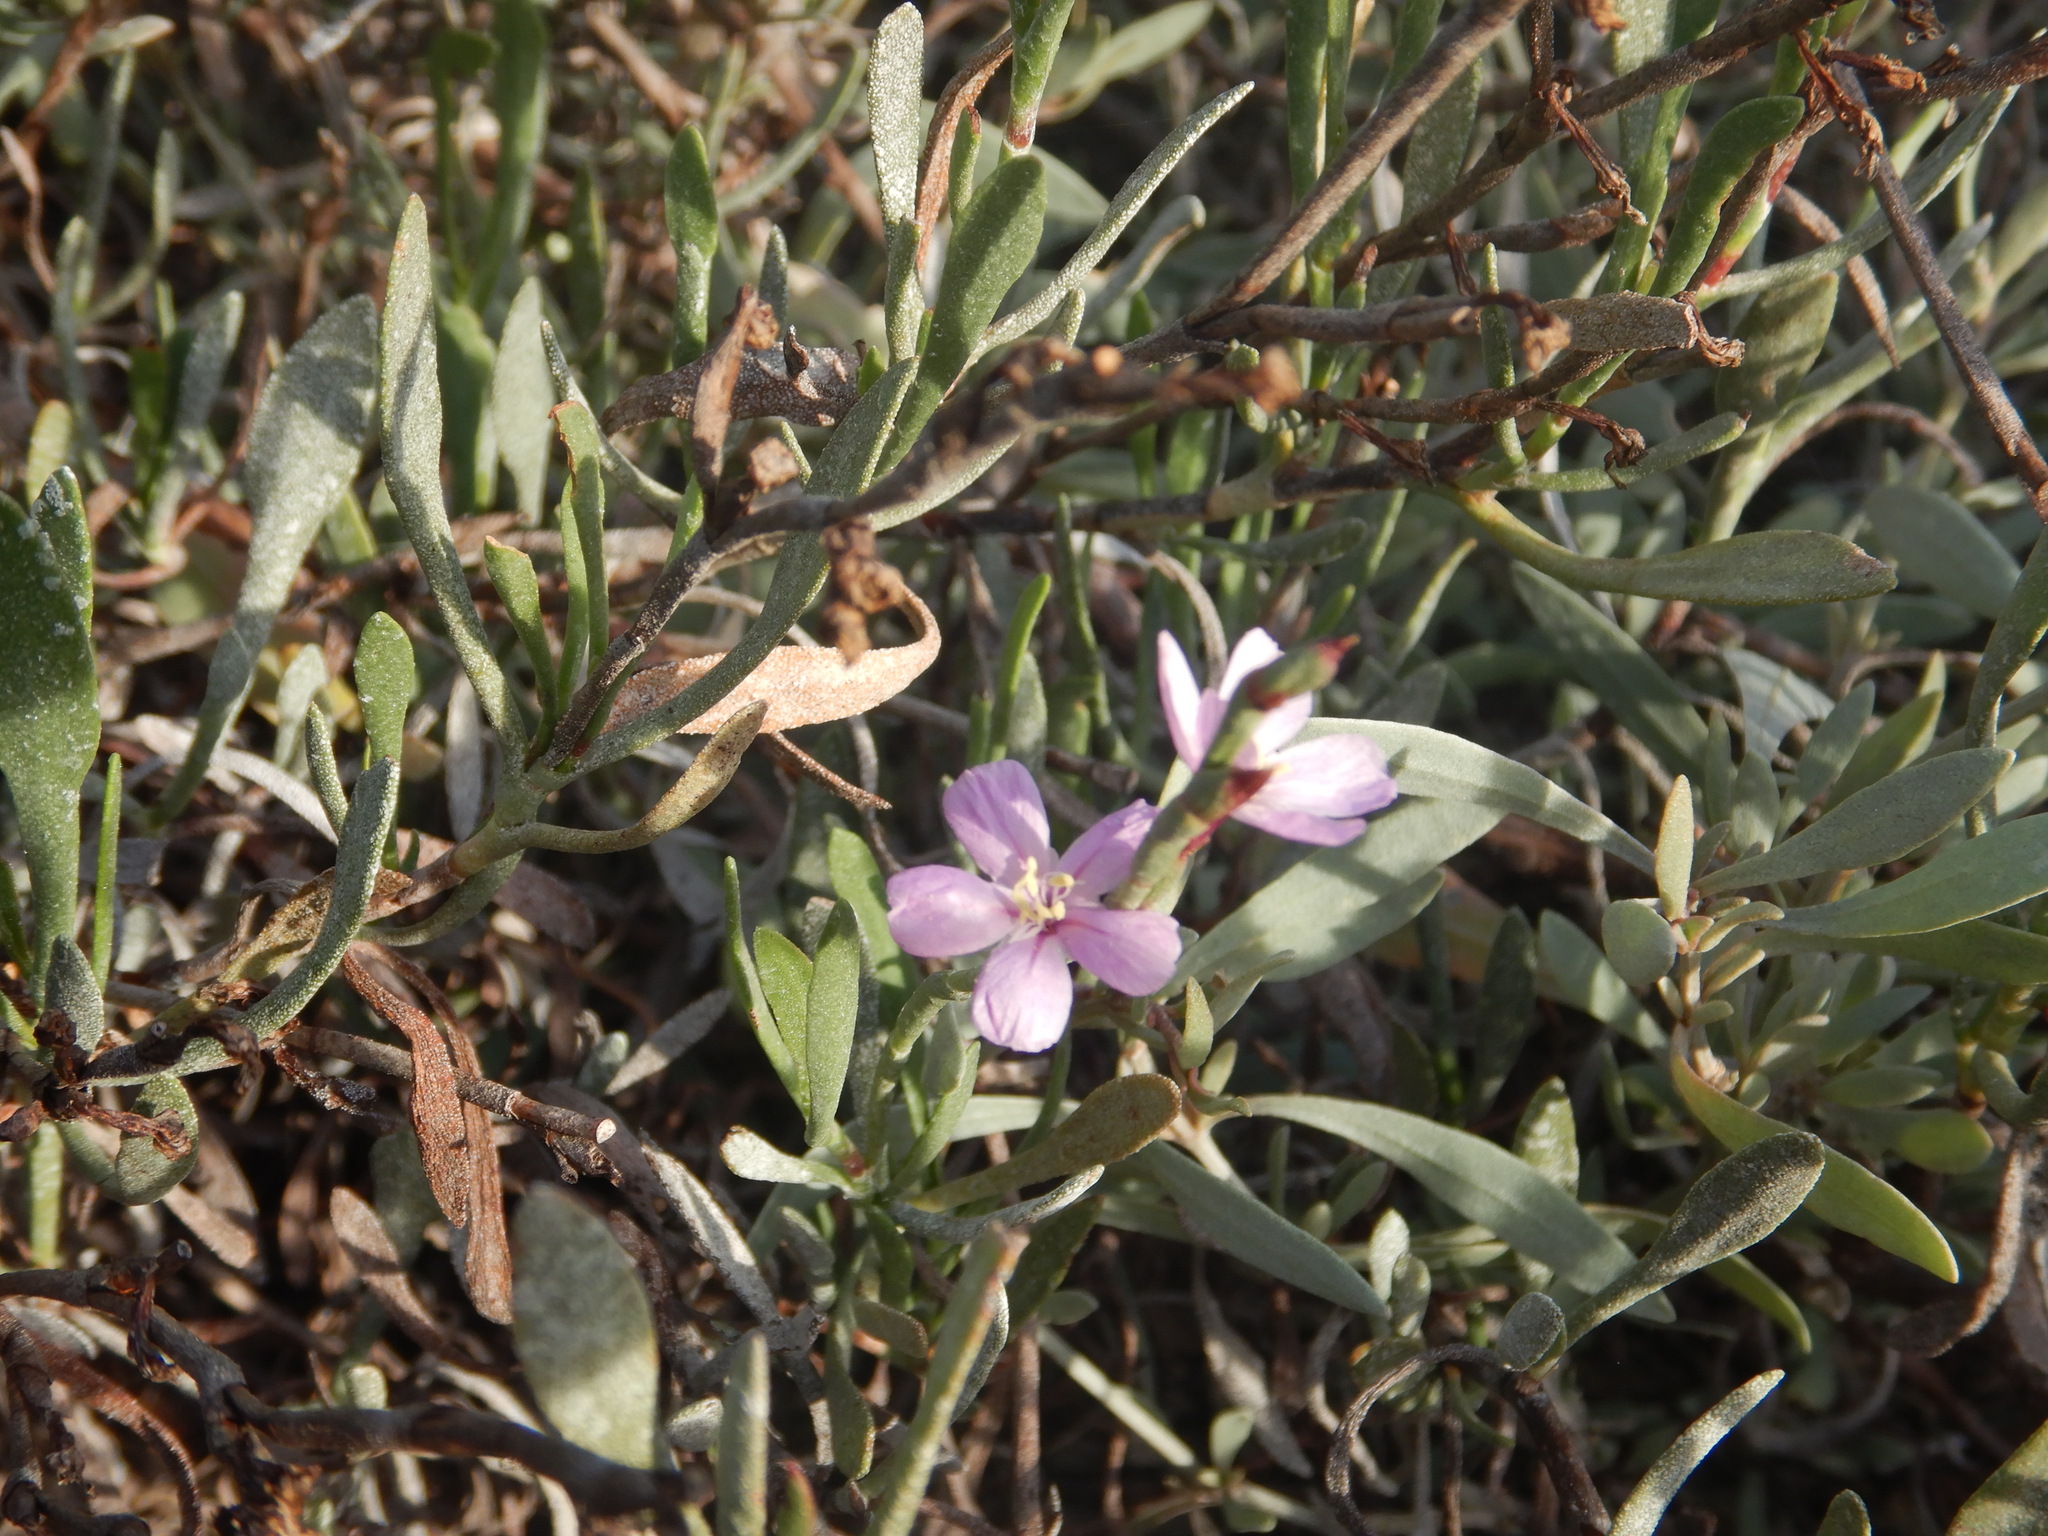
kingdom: Plantae
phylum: Tracheophyta
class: Magnoliopsida
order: Caryophyllales
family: Plumbaginaceae
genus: Limoniastrum
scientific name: Limoniastrum monopetalum
